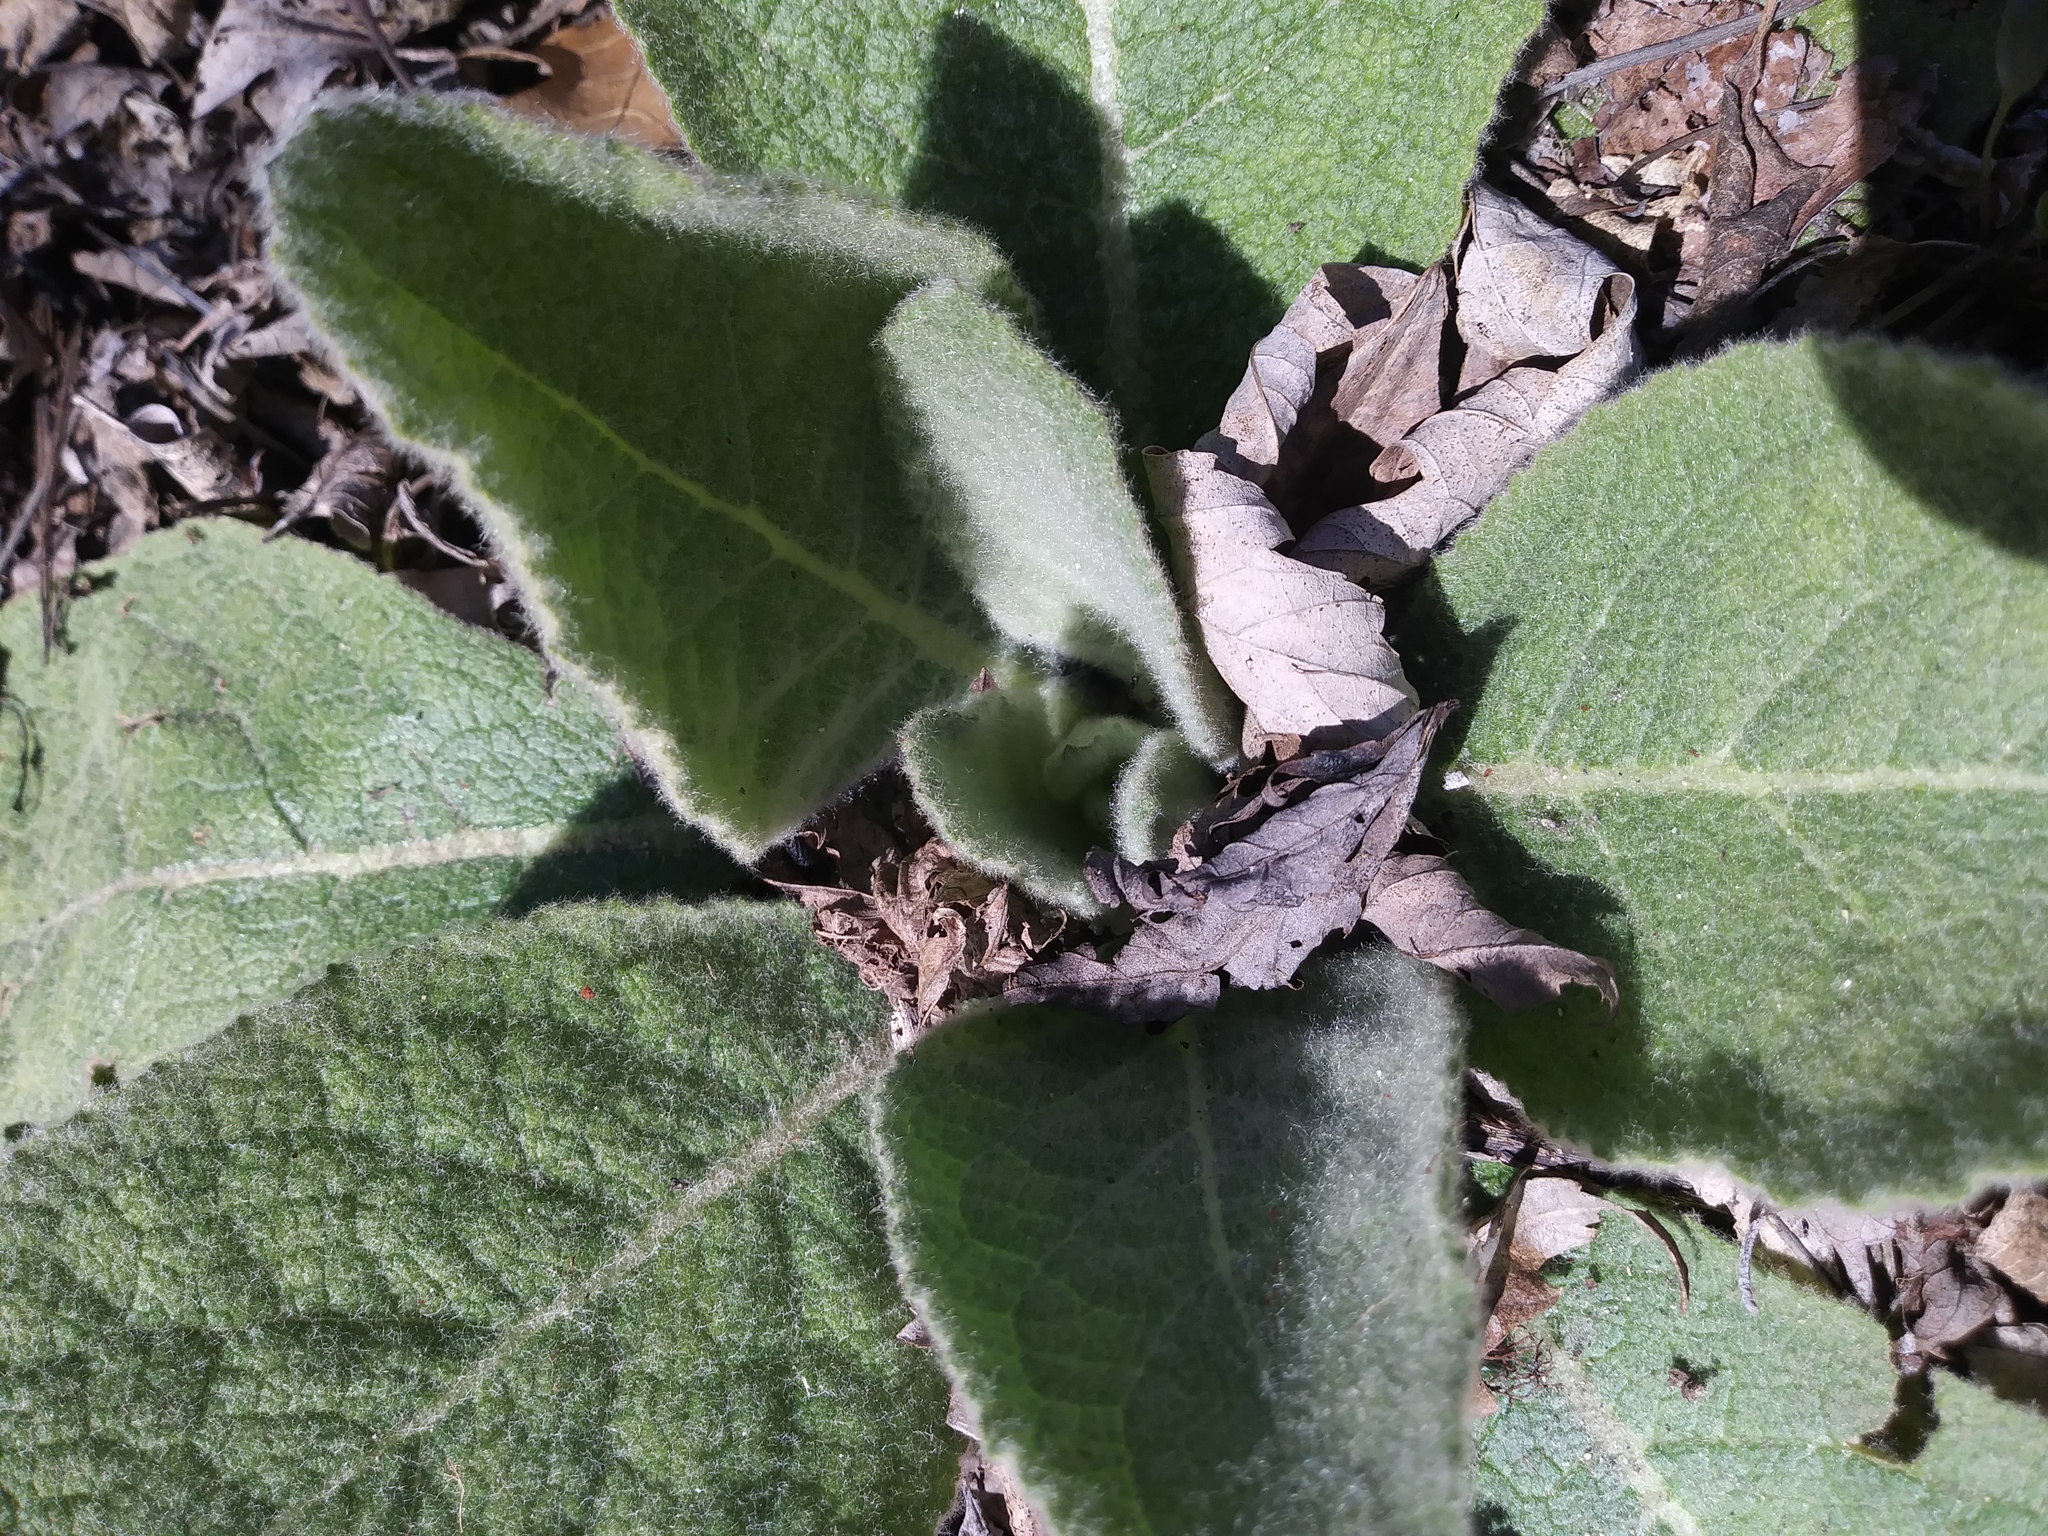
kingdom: Plantae
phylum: Tracheophyta
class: Magnoliopsida
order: Lamiales
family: Scrophulariaceae
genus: Verbascum
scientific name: Verbascum thapsus
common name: Common mullein
